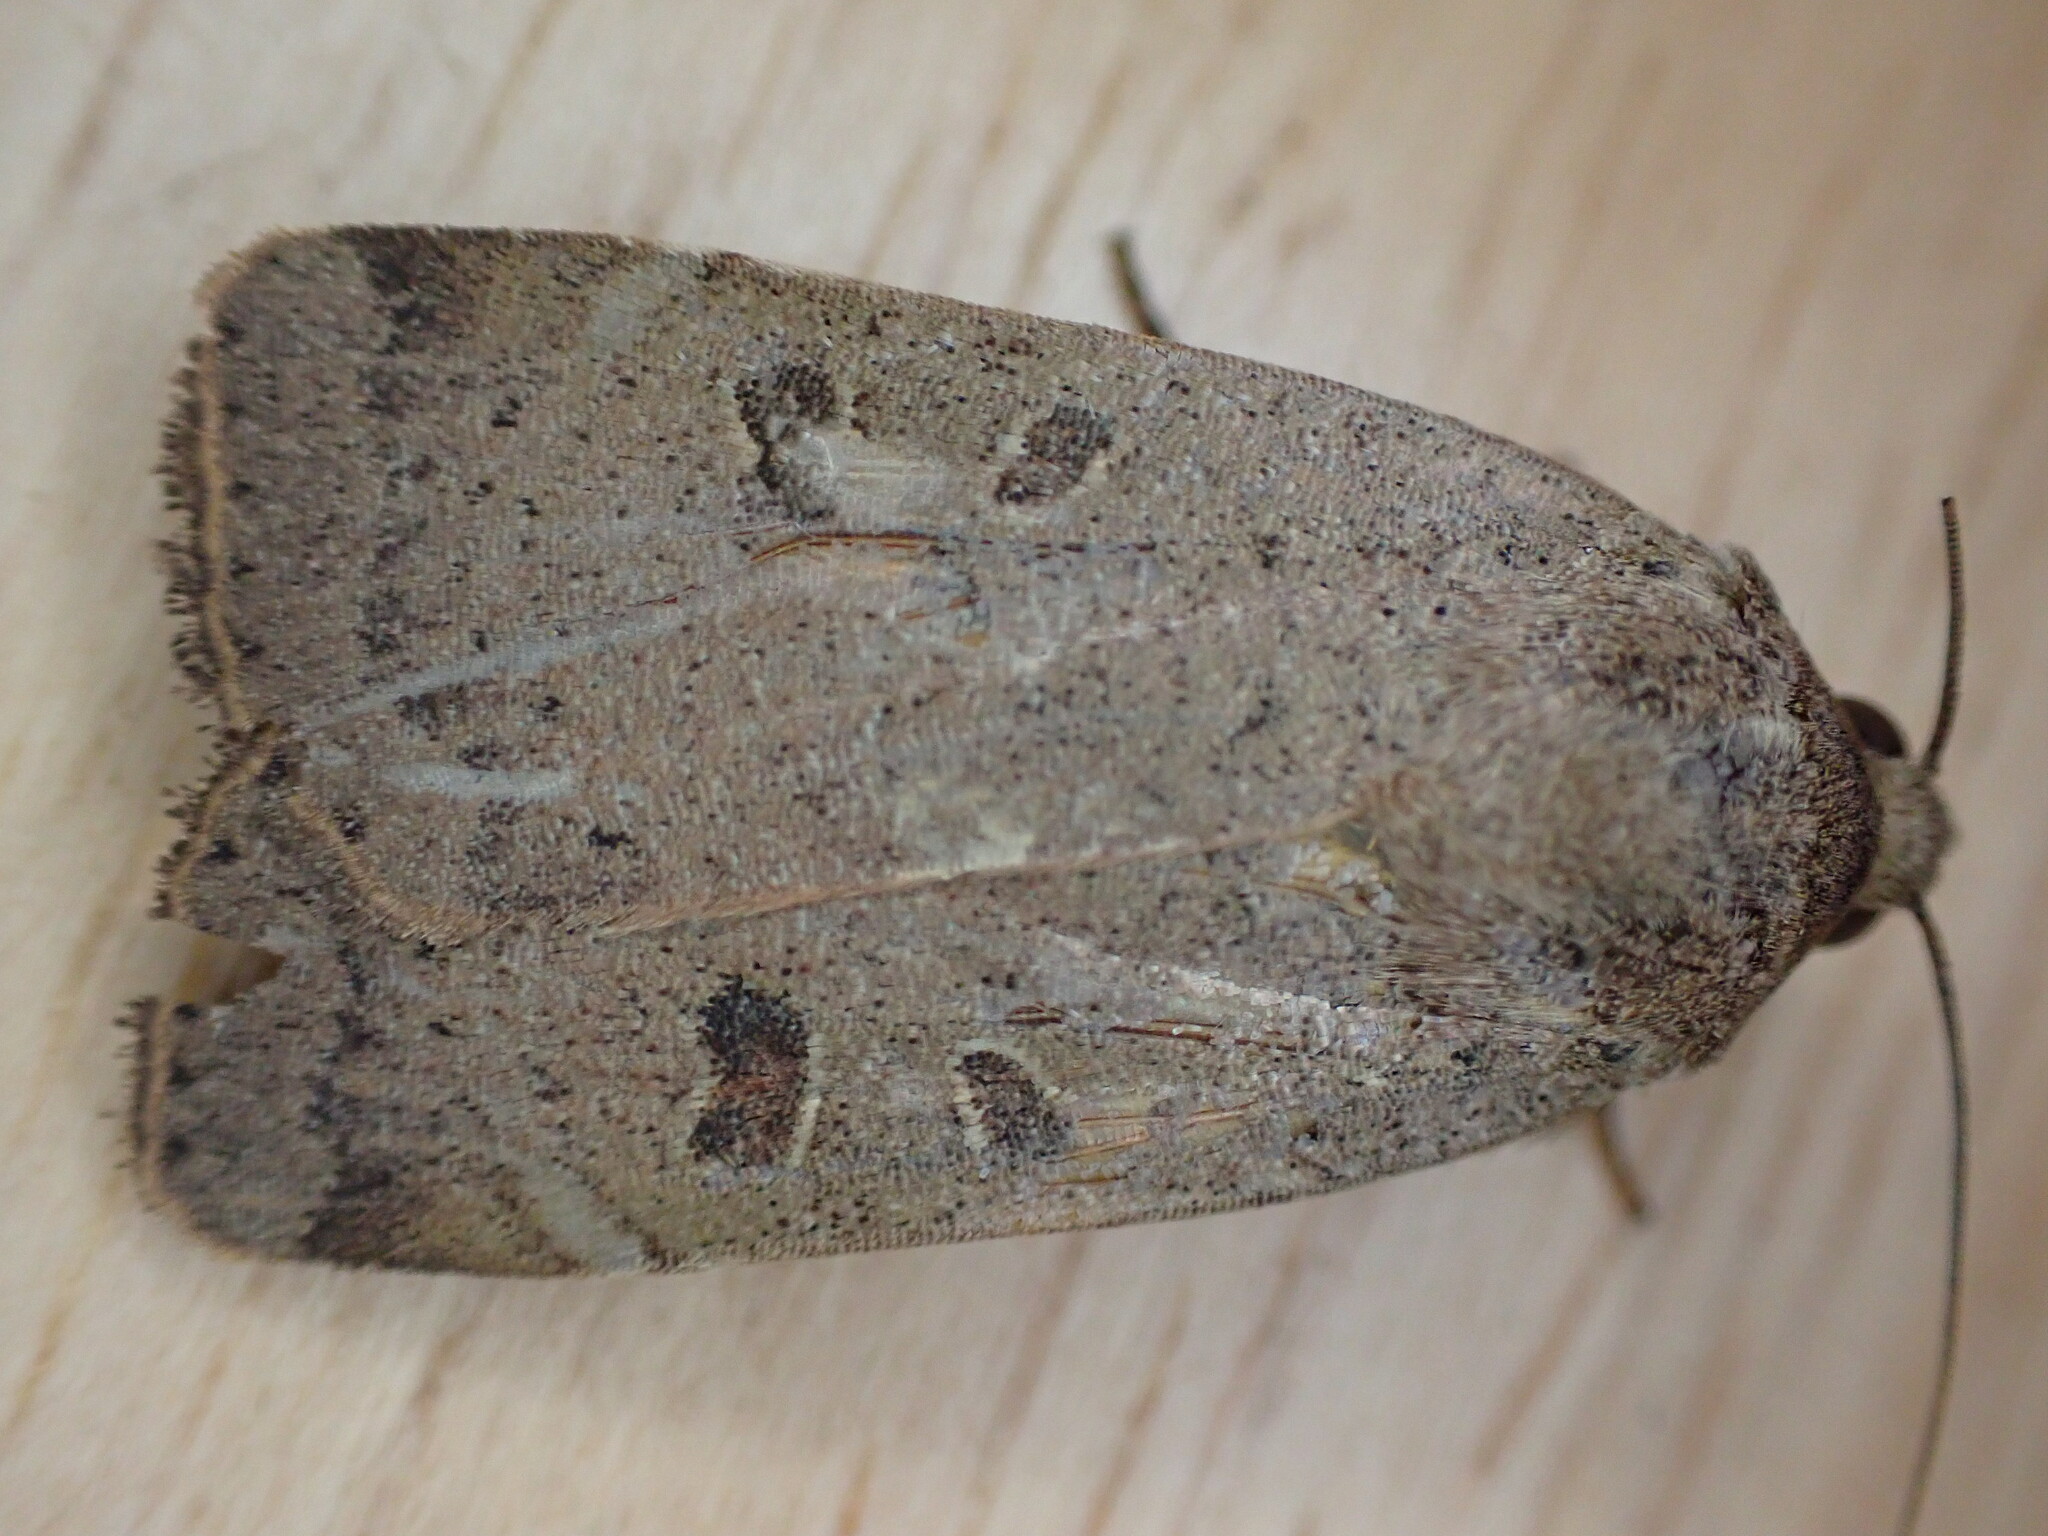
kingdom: Animalia
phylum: Arthropoda
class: Insecta
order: Lepidoptera
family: Noctuidae
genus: Noctua
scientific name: Noctua comes
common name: Lesser yellow underwing
